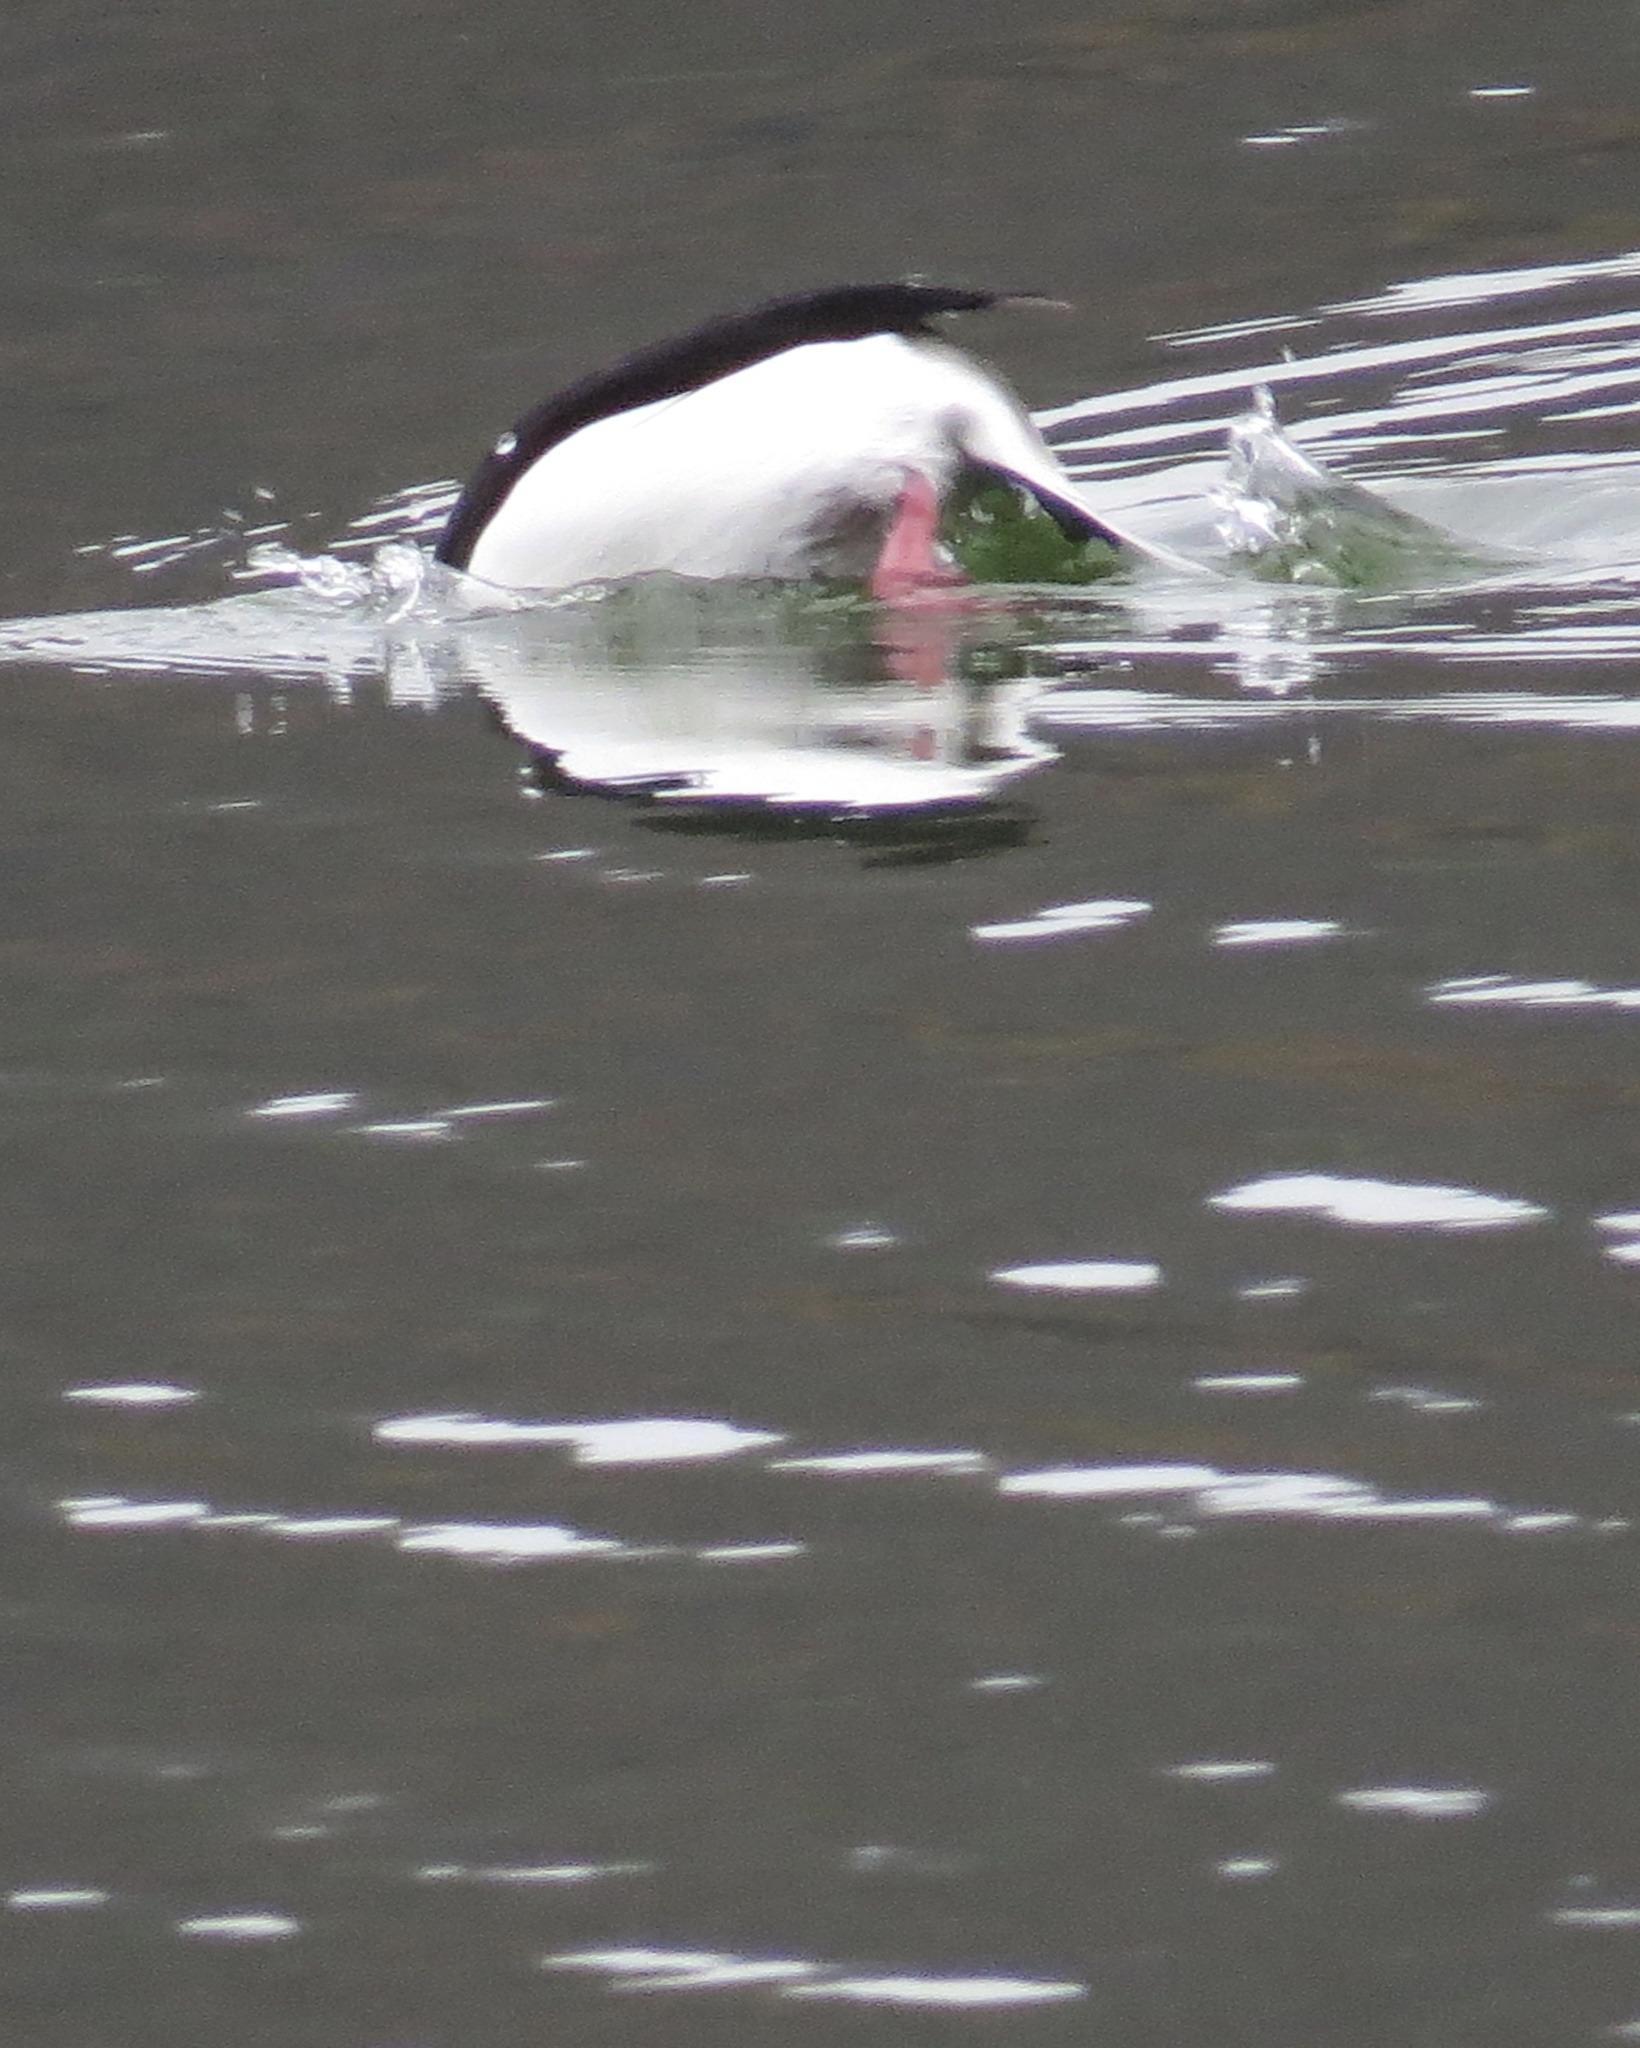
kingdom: Animalia
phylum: Chordata
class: Aves
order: Anseriformes
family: Anatidae
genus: Bucephala
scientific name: Bucephala albeola
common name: Bufflehead
